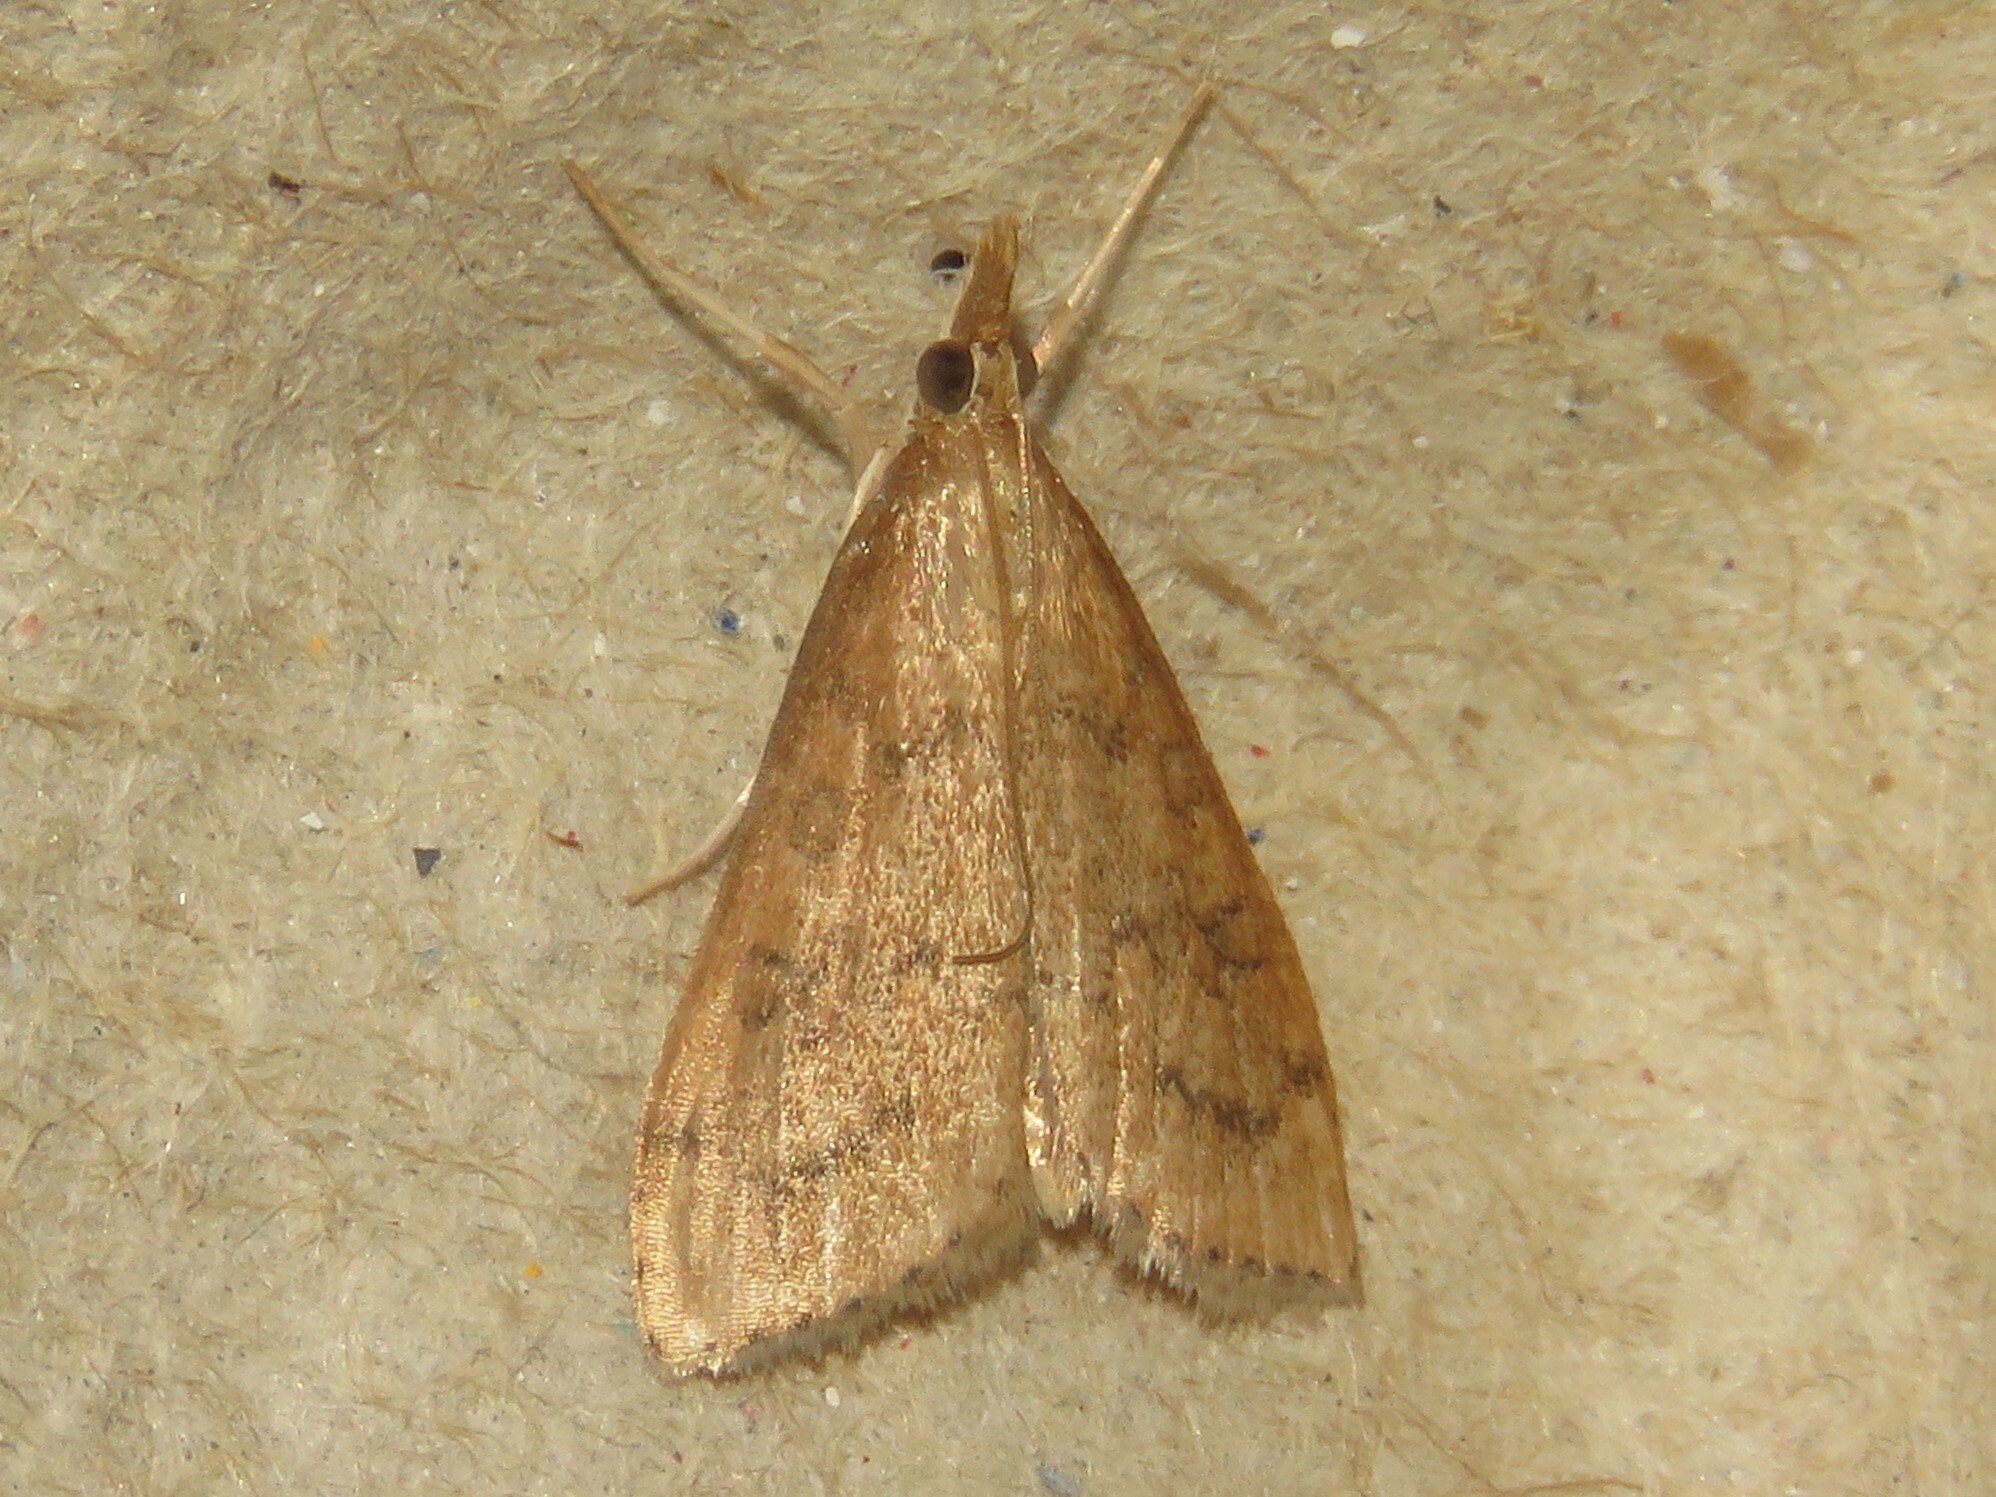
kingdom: Animalia
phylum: Arthropoda
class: Insecta
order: Lepidoptera
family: Crambidae
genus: Udea
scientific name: Udea rubigalis
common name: Celery leaftier moth
